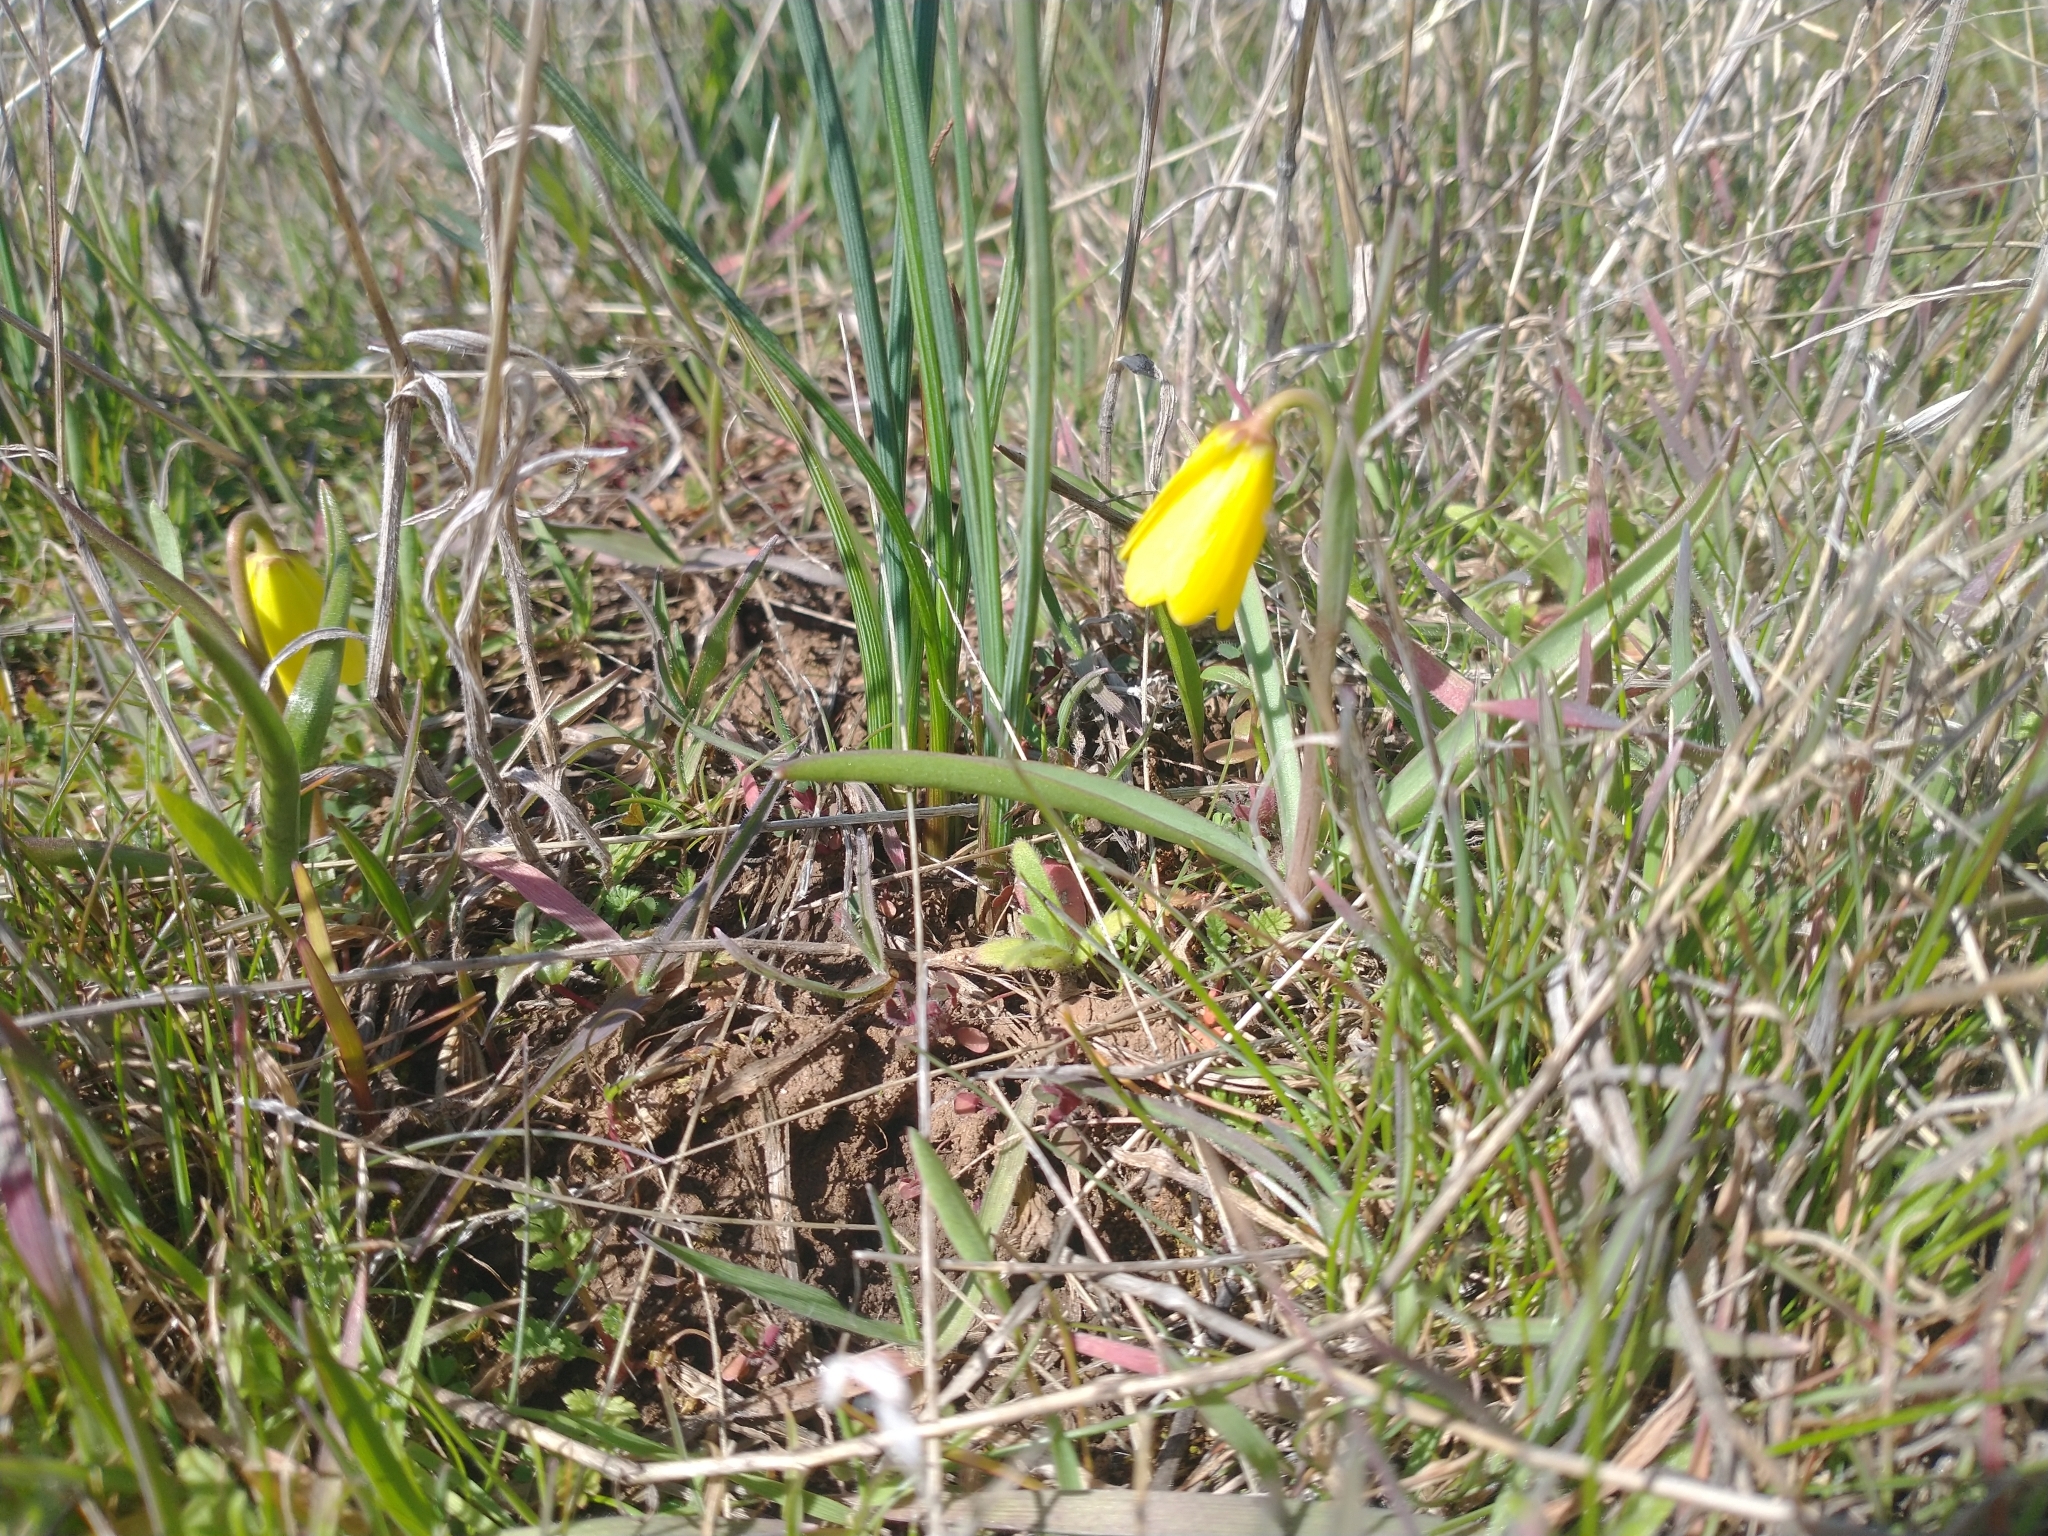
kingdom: Plantae
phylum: Tracheophyta
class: Liliopsida
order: Liliales
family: Liliaceae
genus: Fritillaria
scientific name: Fritillaria pudica
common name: Yellow fritillary
